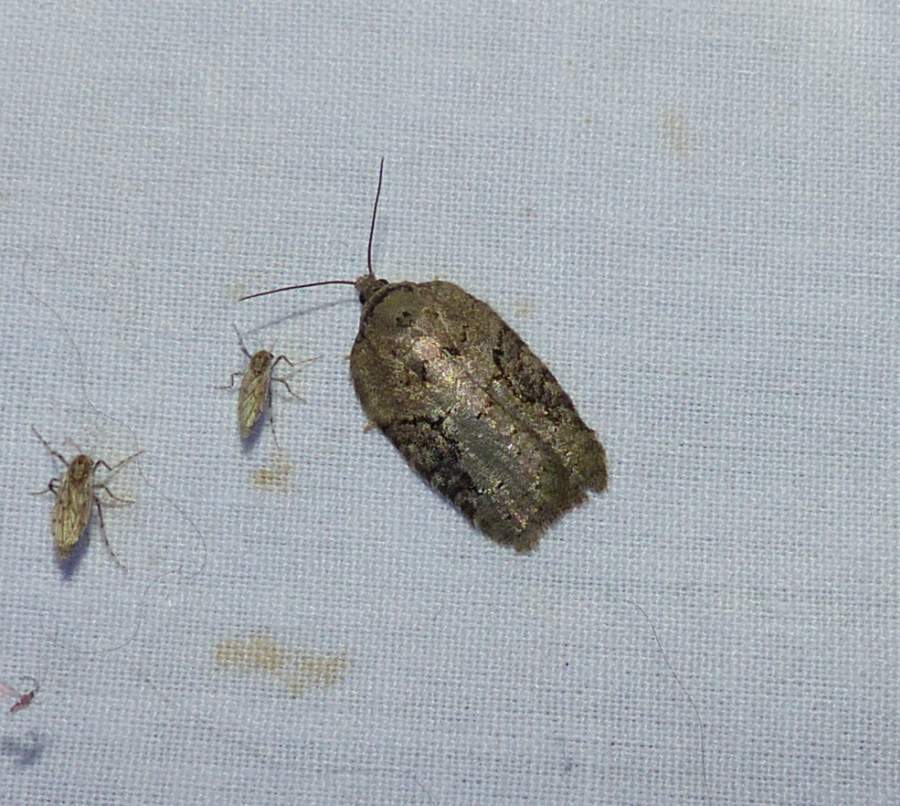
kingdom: Animalia
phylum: Arthropoda
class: Insecta
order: Lepidoptera
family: Tortricidae
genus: Acleris
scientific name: Acleris chalybeana
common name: Lesser maple leafroller
